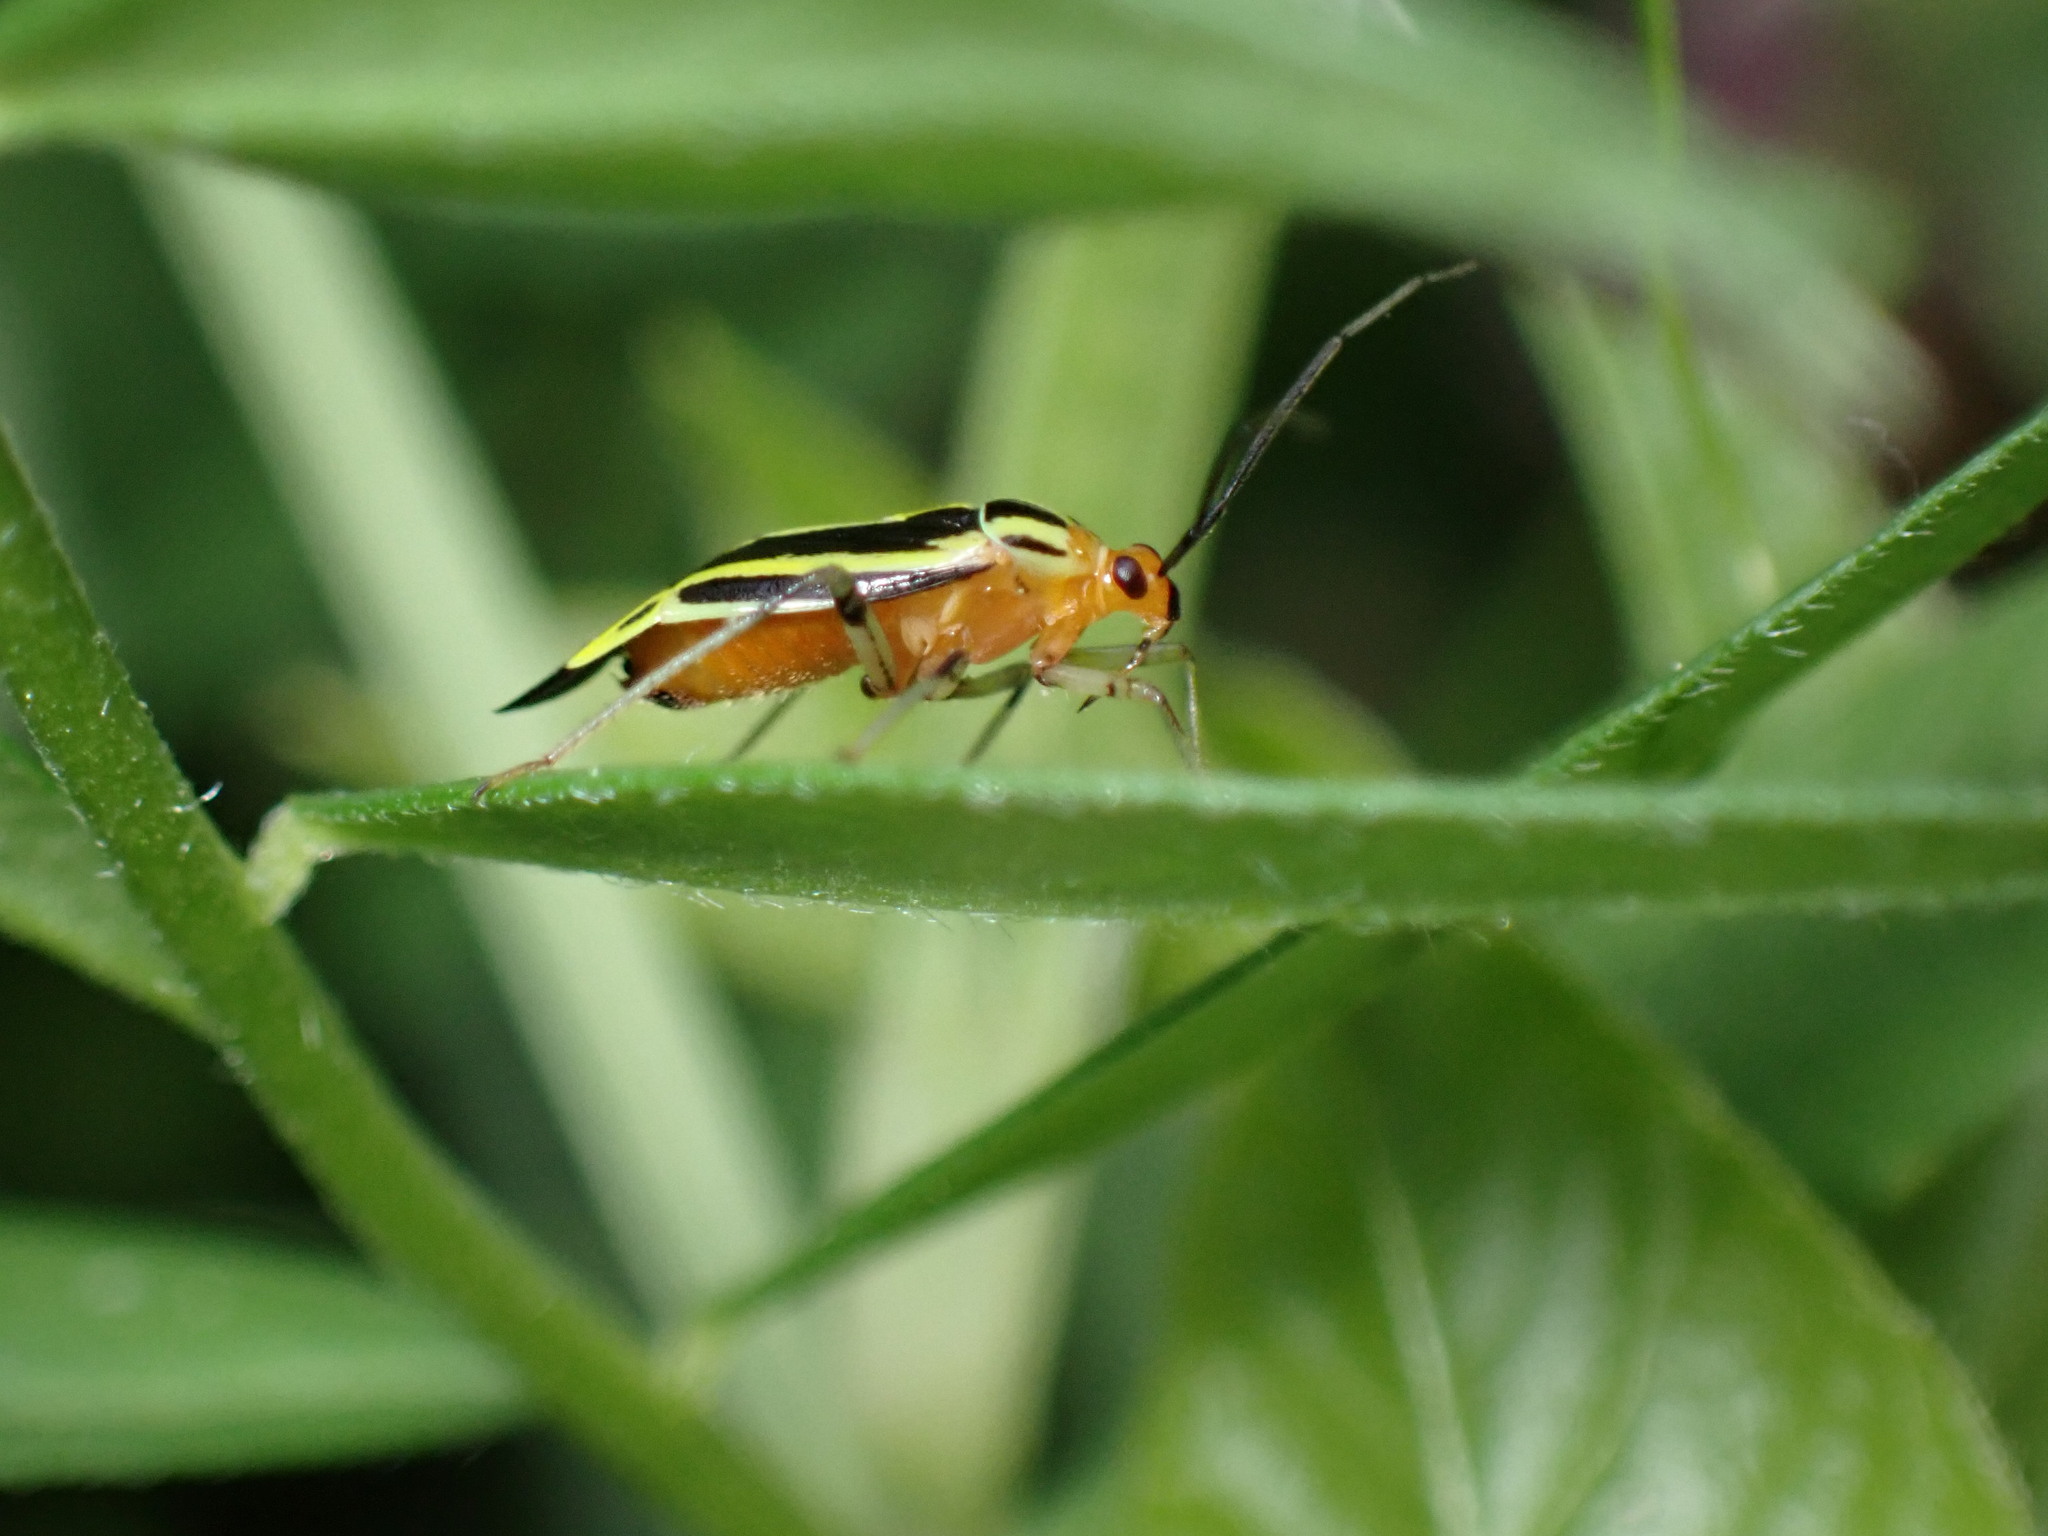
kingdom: Animalia
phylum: Arthropoda
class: Insecta
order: Hemiptera
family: Miridae
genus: Poecilocapsus
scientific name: Poecilocapsus lineatus
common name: Four-lined plant bug
